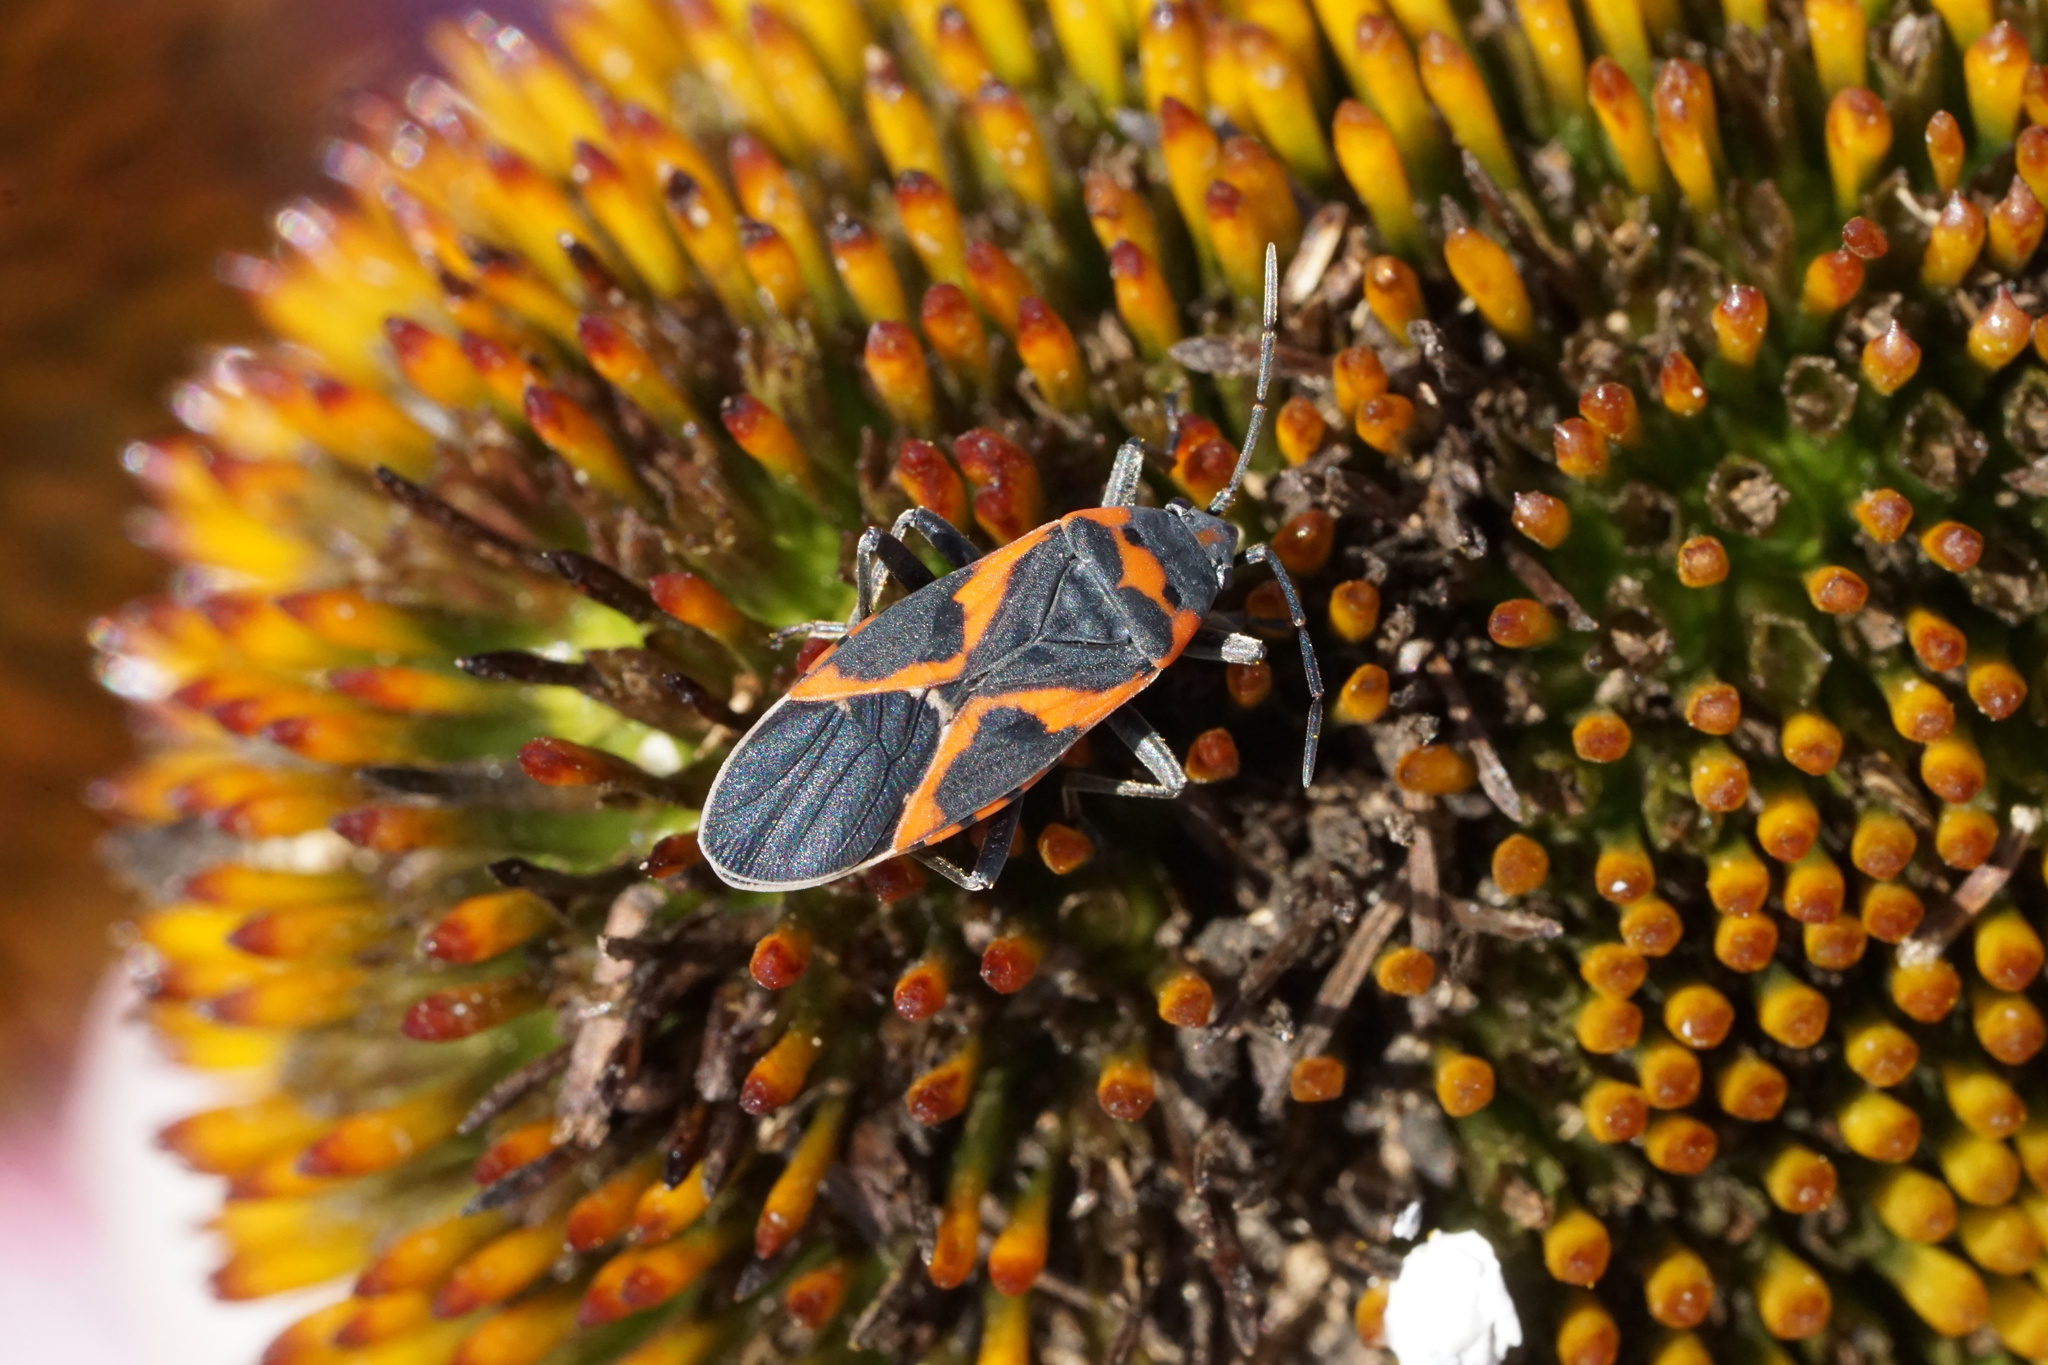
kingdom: Animalia
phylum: Arthropoda
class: Insecta
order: Hemiptera
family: Lygaeidae
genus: Lygaeus
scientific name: Lygaeus kalmii
